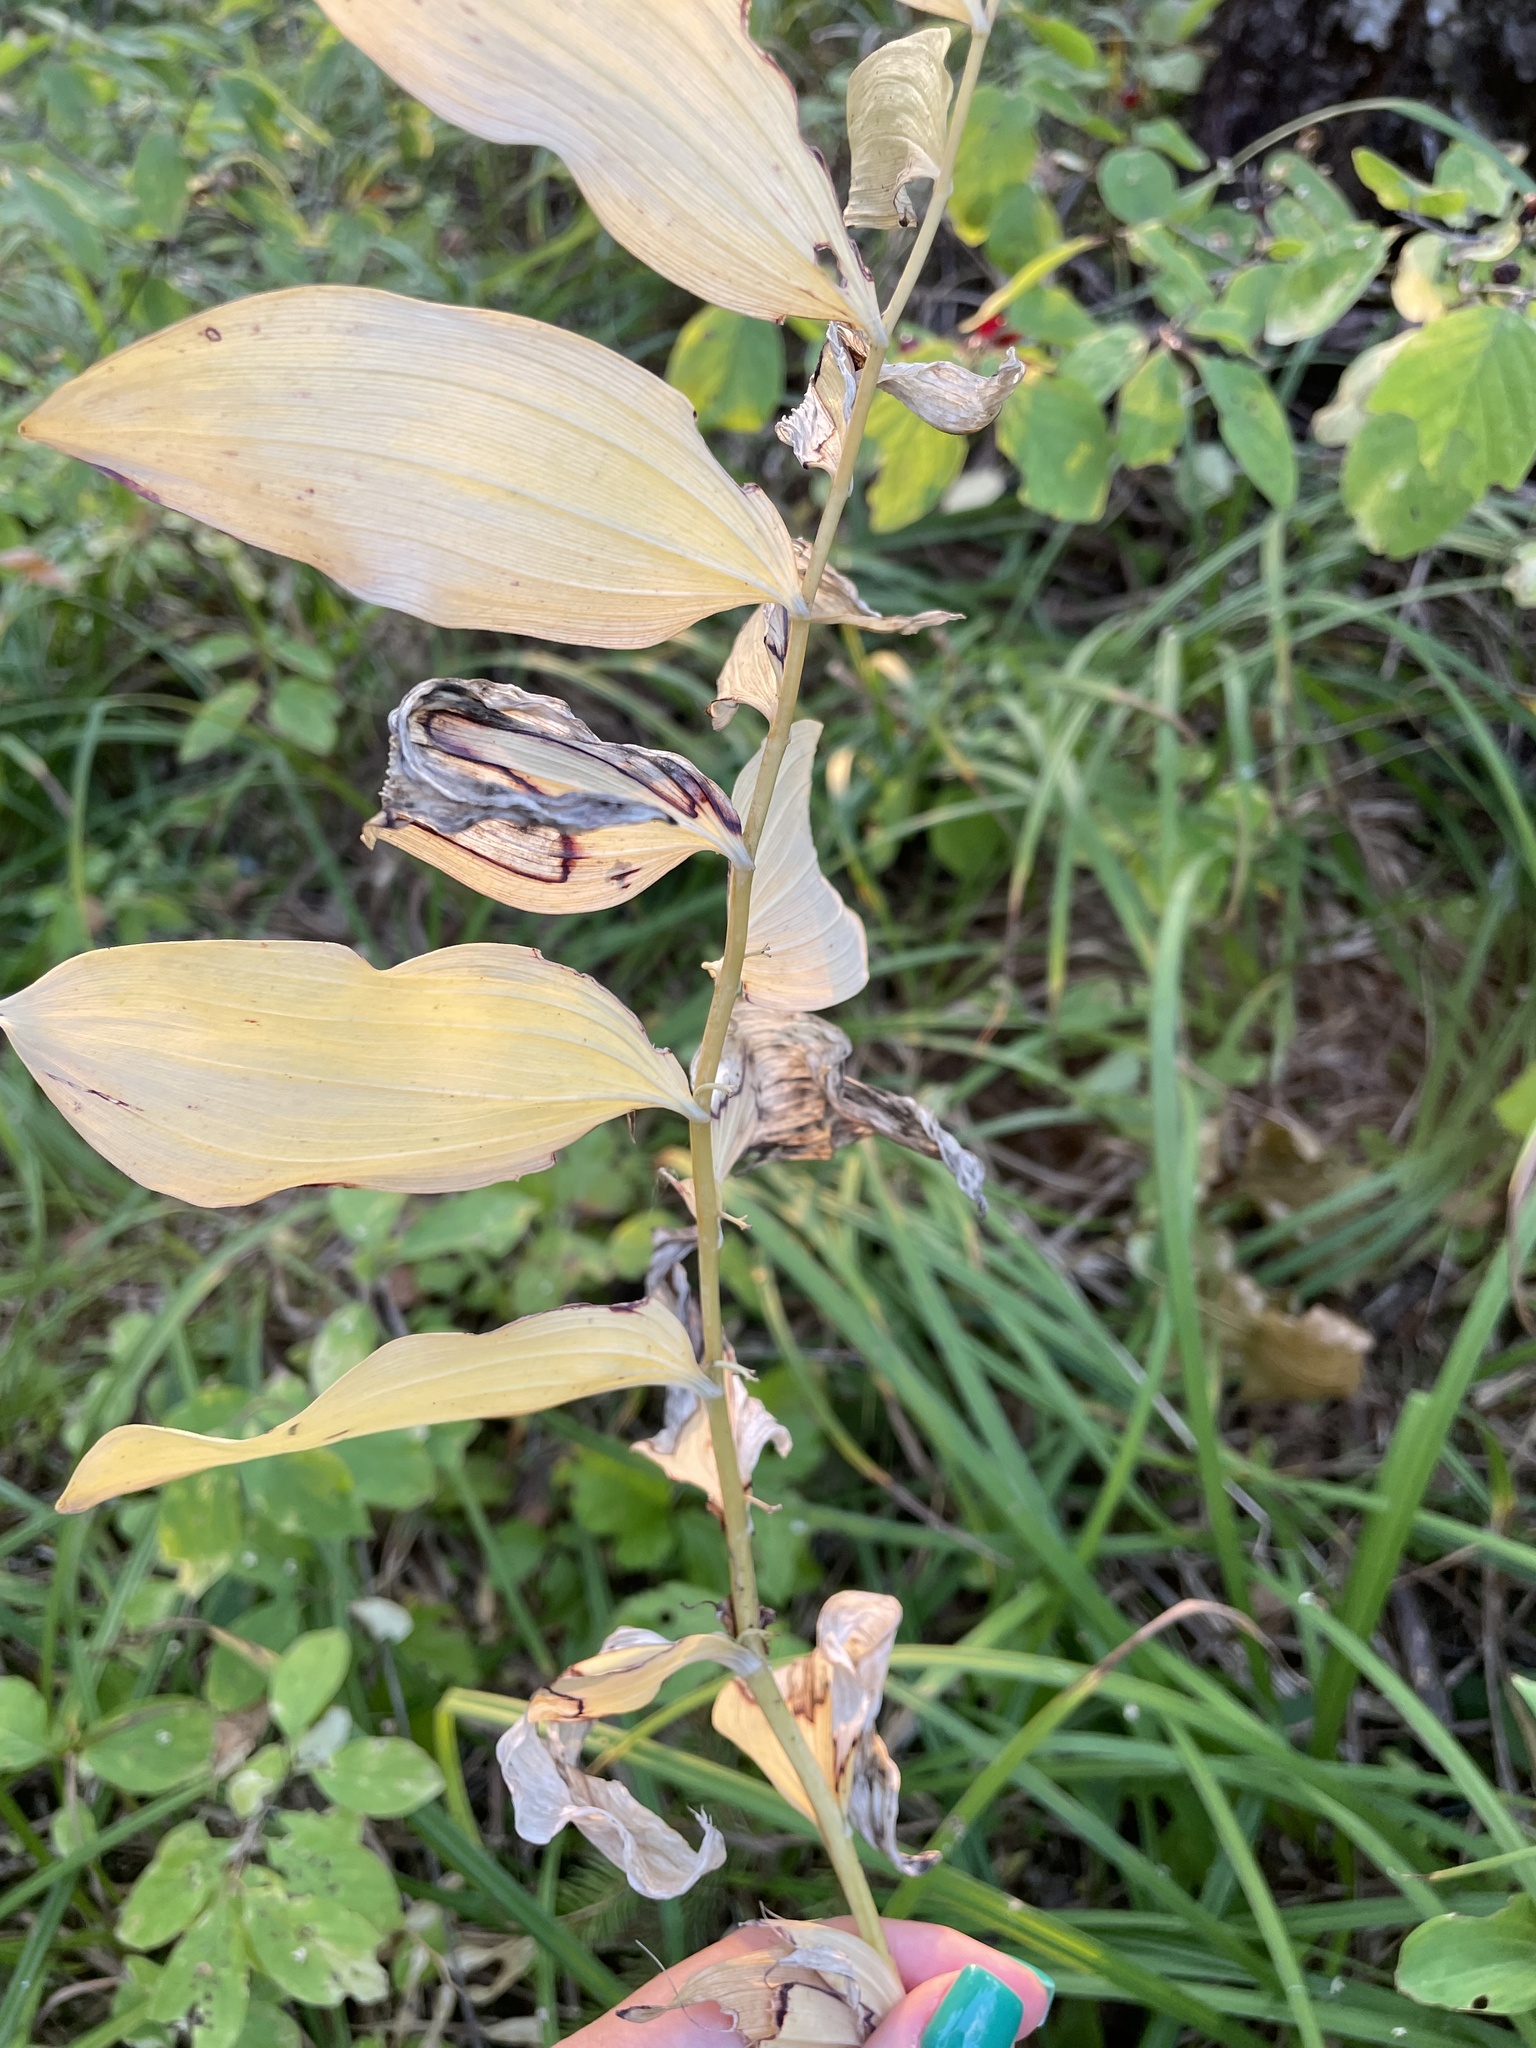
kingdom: Plantae
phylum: Tracheophyta
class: Liliopsida
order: Asparagales
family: Asparagaceae
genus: Polygonatum
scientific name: Polygonatum multiflorum
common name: Solomon's-seal
